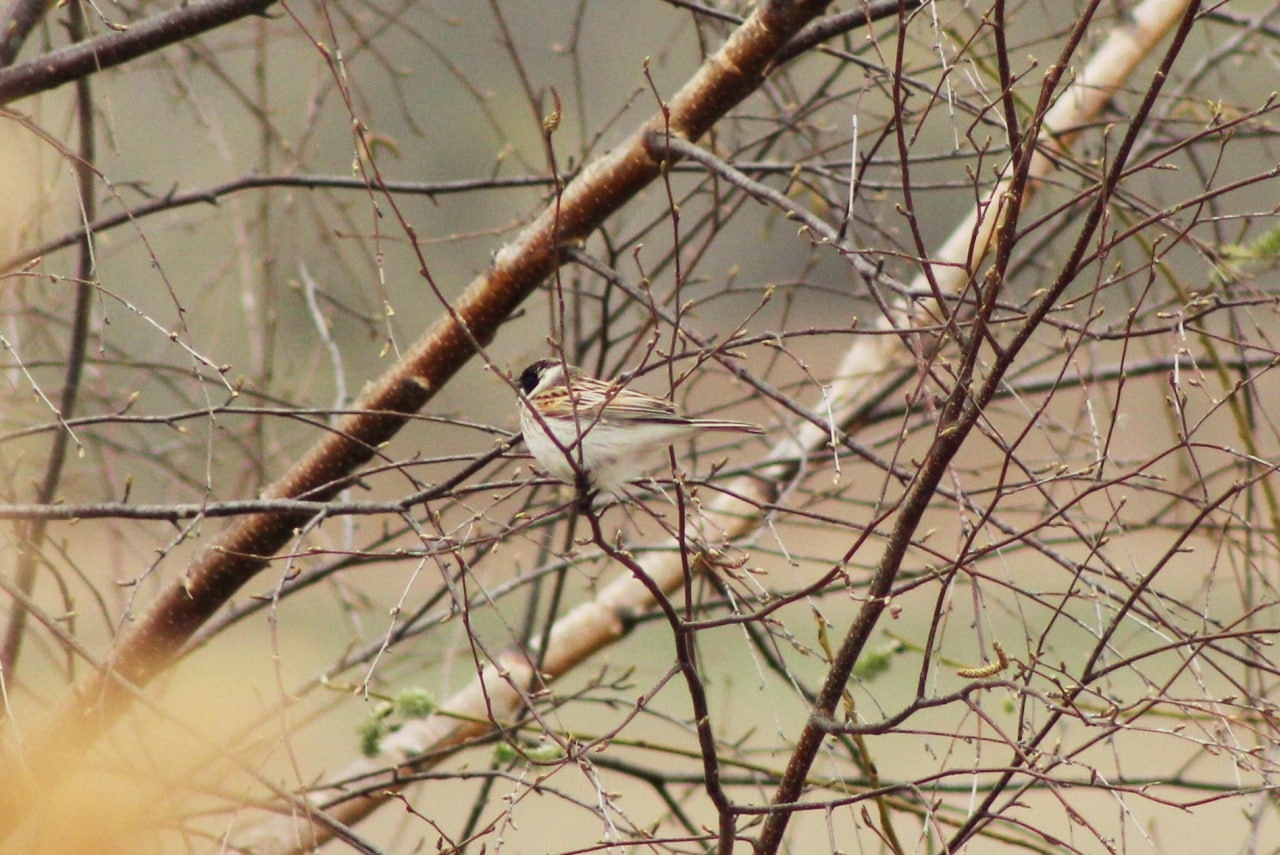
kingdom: Animalia
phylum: Chordata
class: Aves
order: Passeriformes
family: Emberizidae
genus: Emberiza
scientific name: Emberiza schoeniclus
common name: Reed bunting
